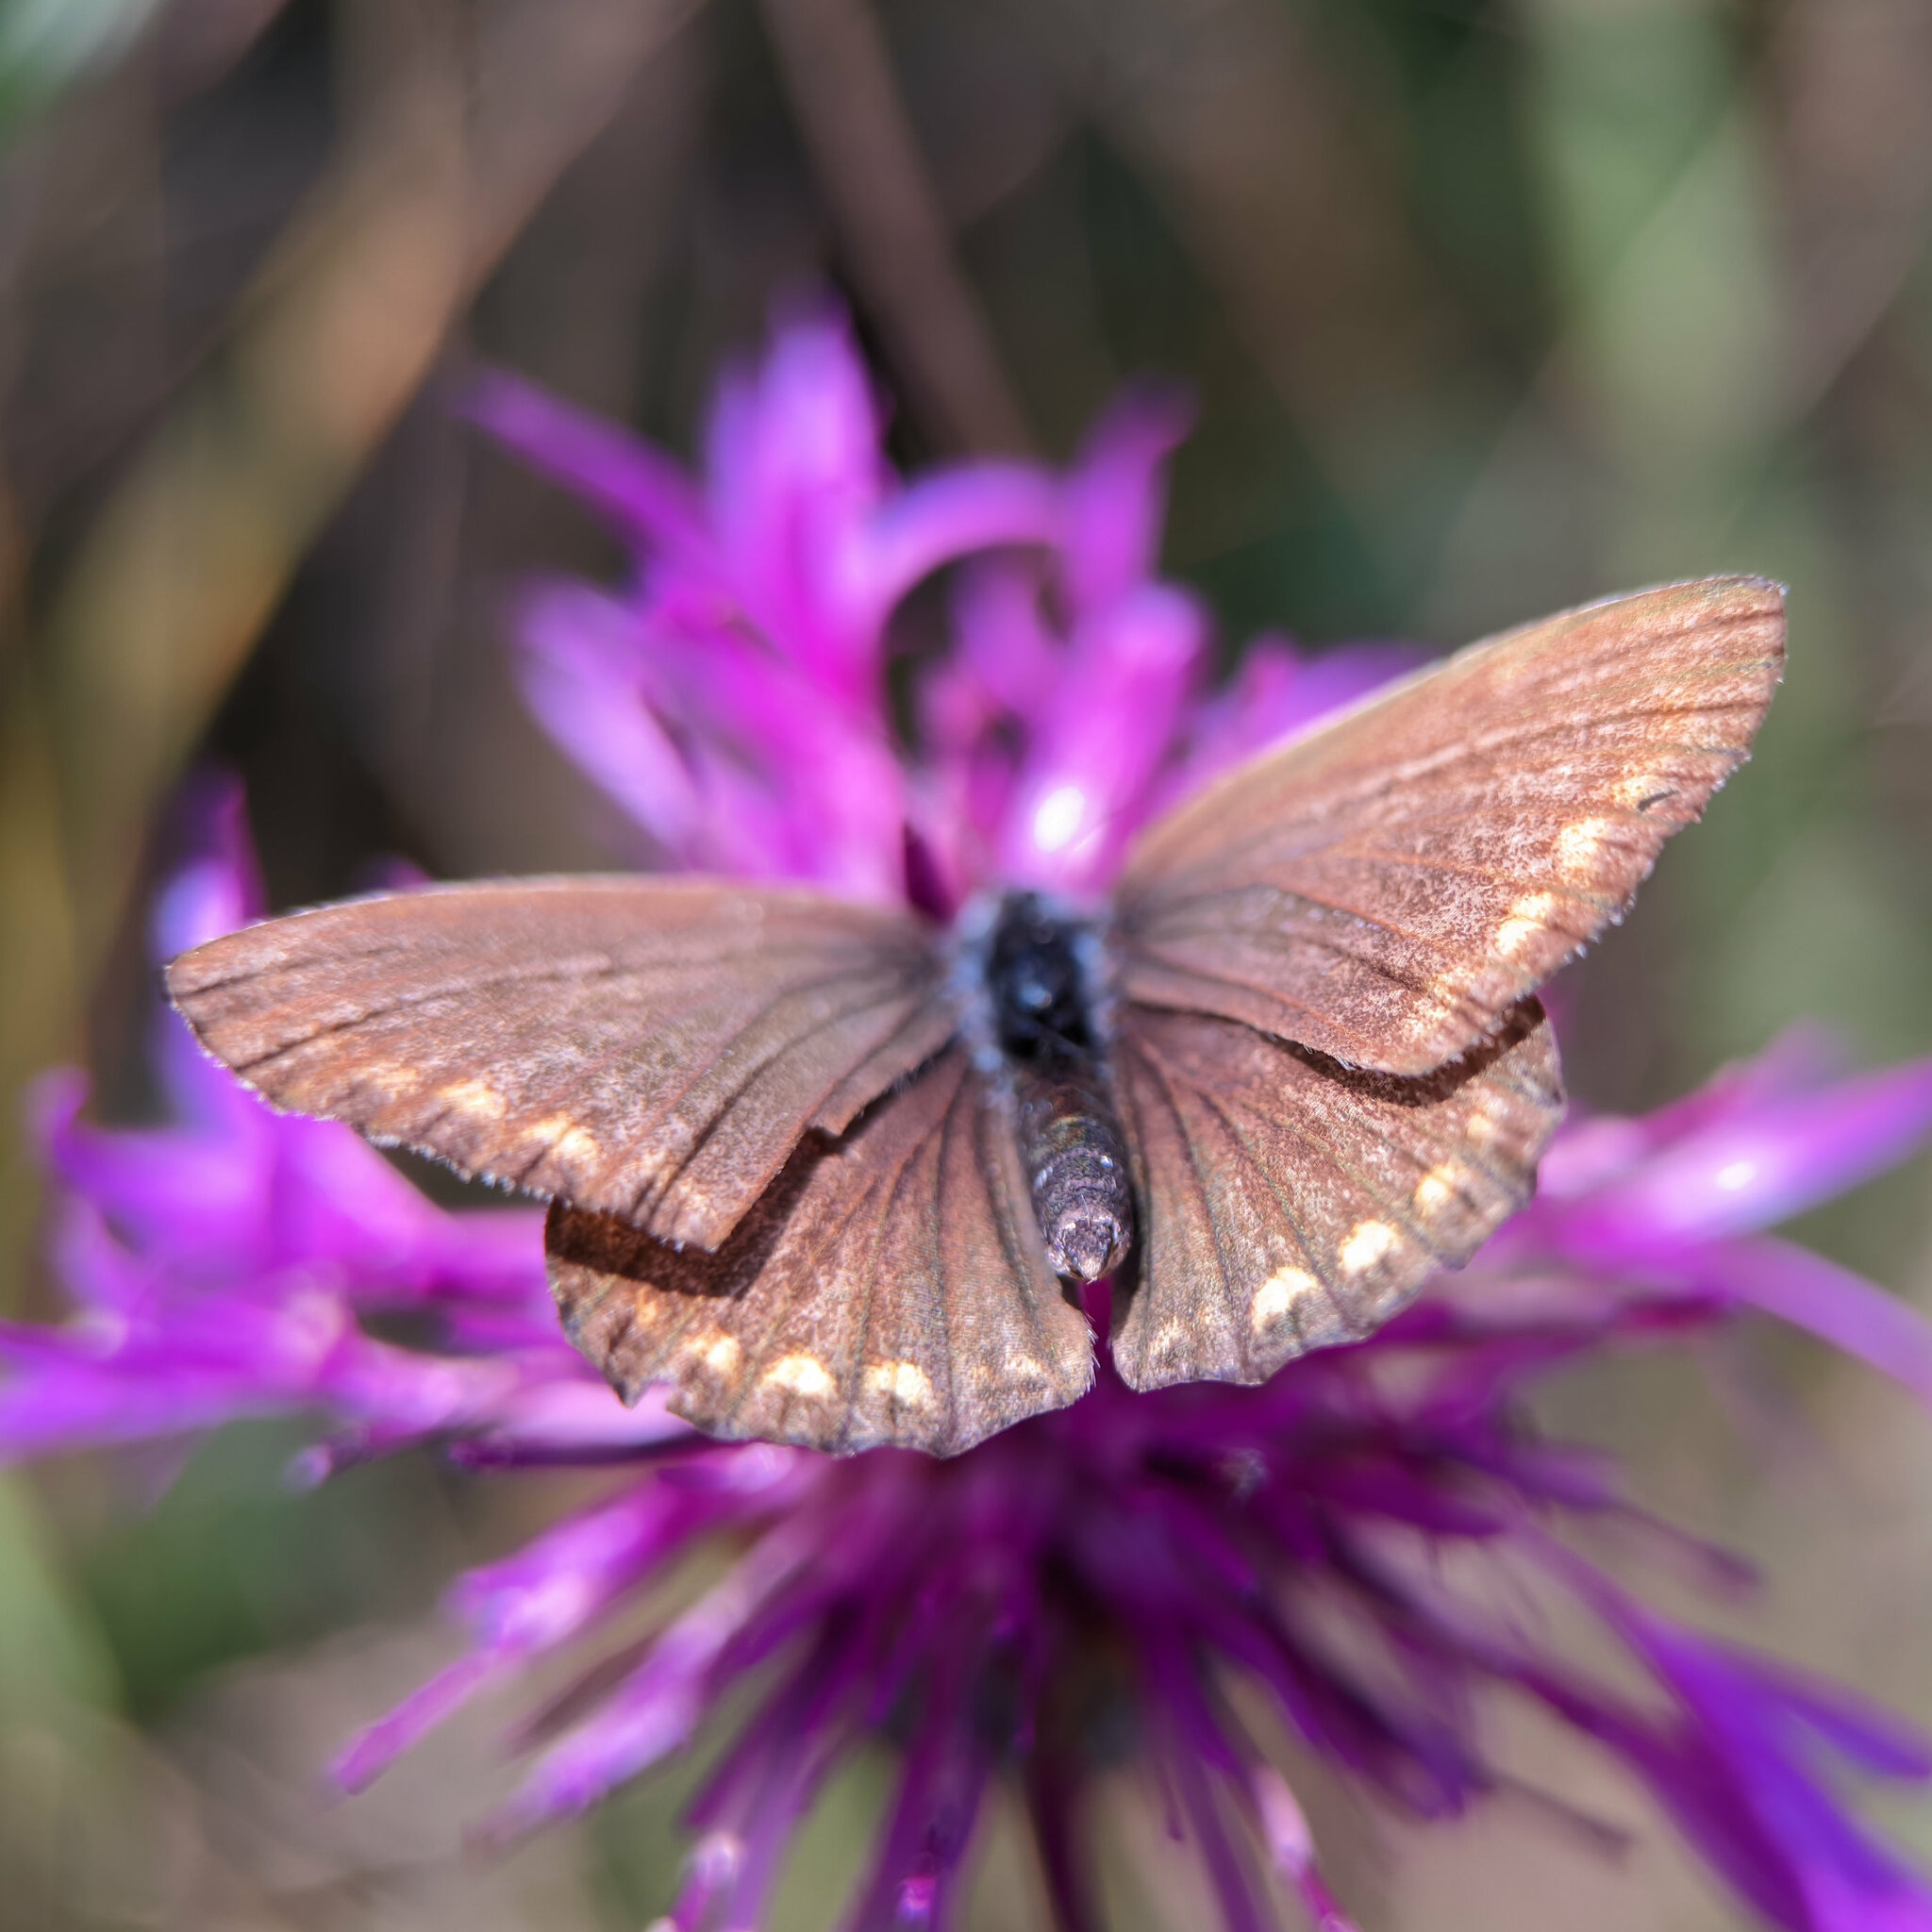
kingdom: Animalia
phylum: Arthropoda
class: Insecta
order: Lepidoptera
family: Lycaenidae
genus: Polyommatus
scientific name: Polyommatus icarus
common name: Common blue
